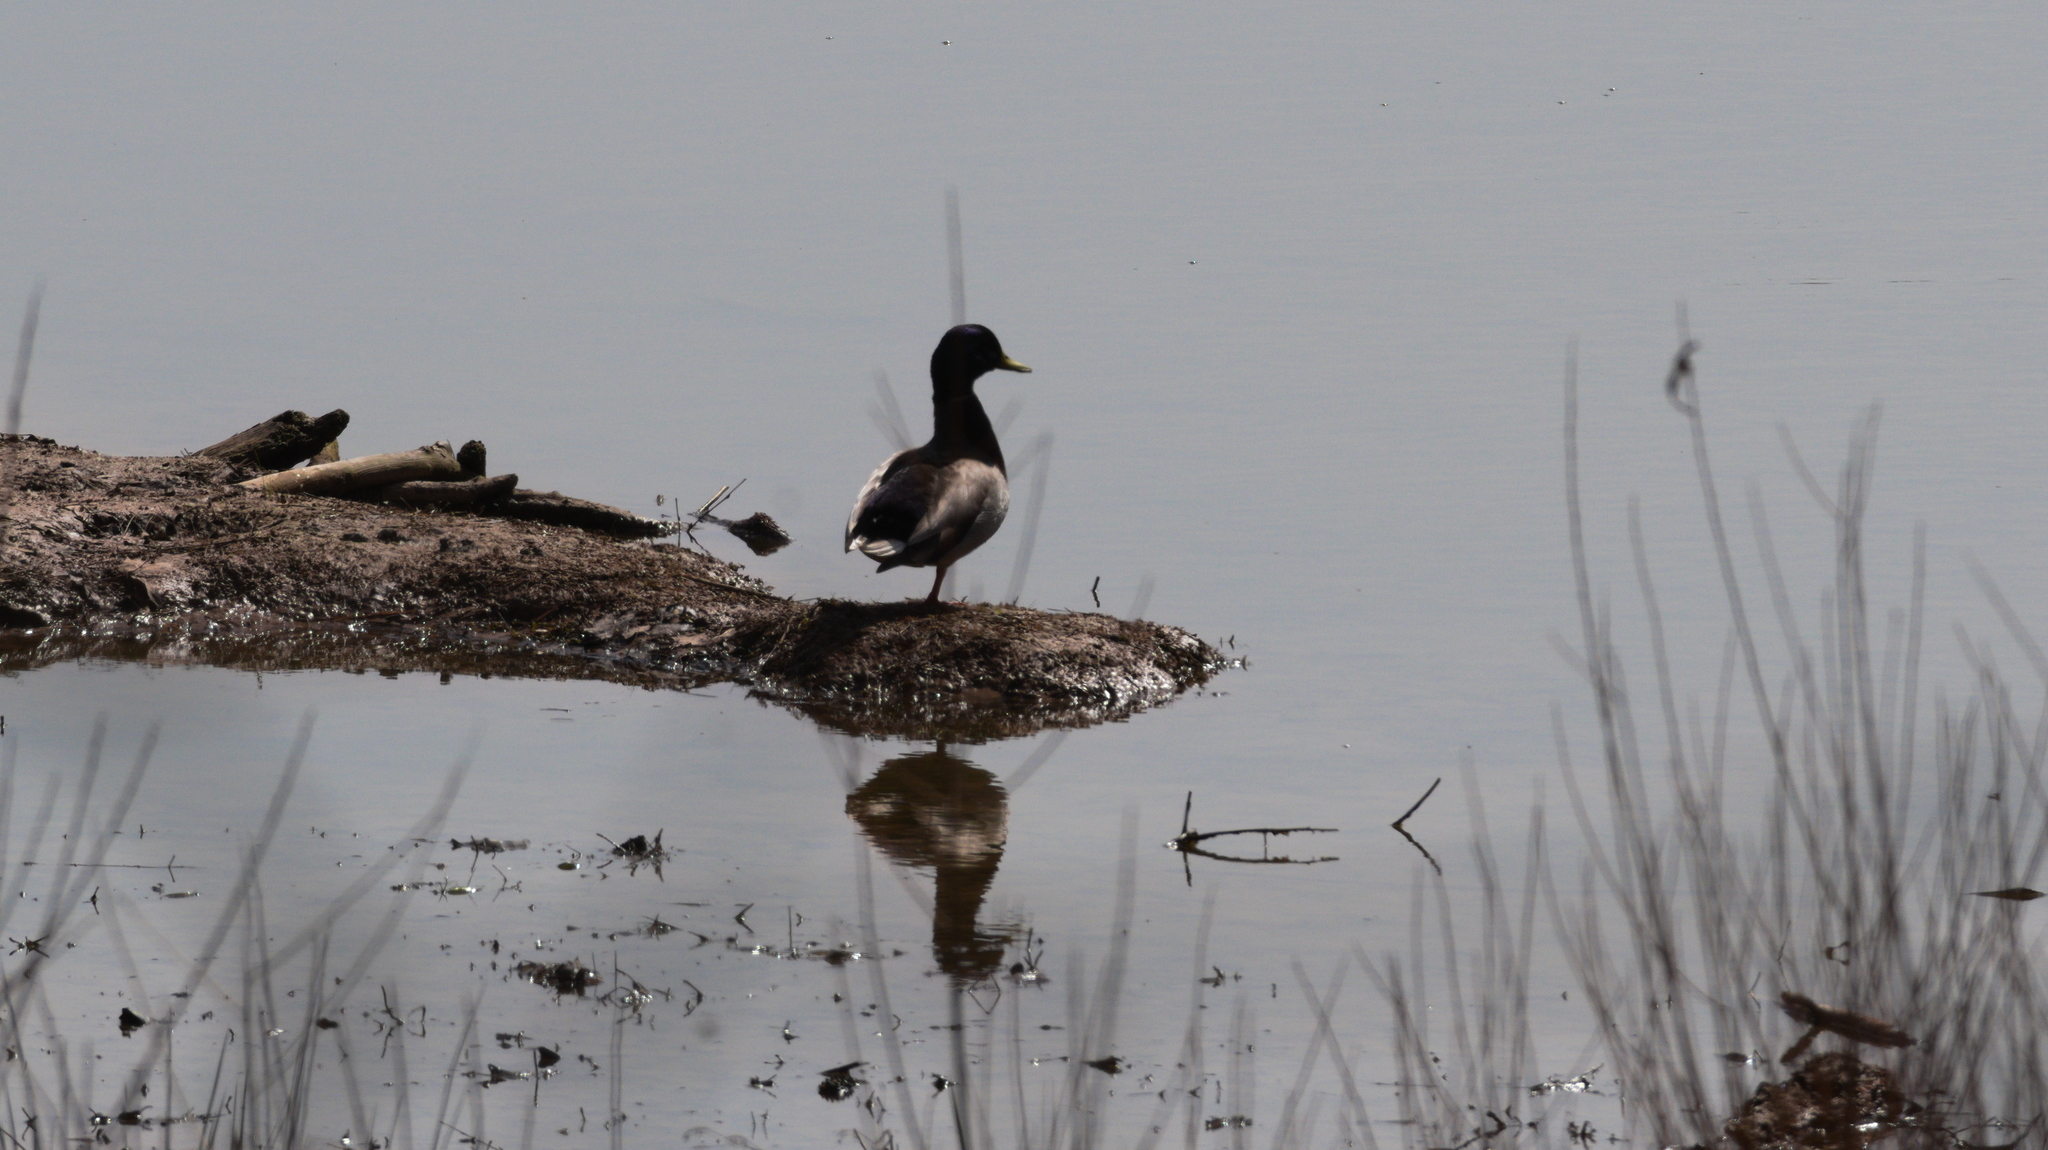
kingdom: Animalia
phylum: Chordata
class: Aves
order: Anseriformes
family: Anatidae
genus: Anas
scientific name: Anas platyrhynchos
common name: Mallard
